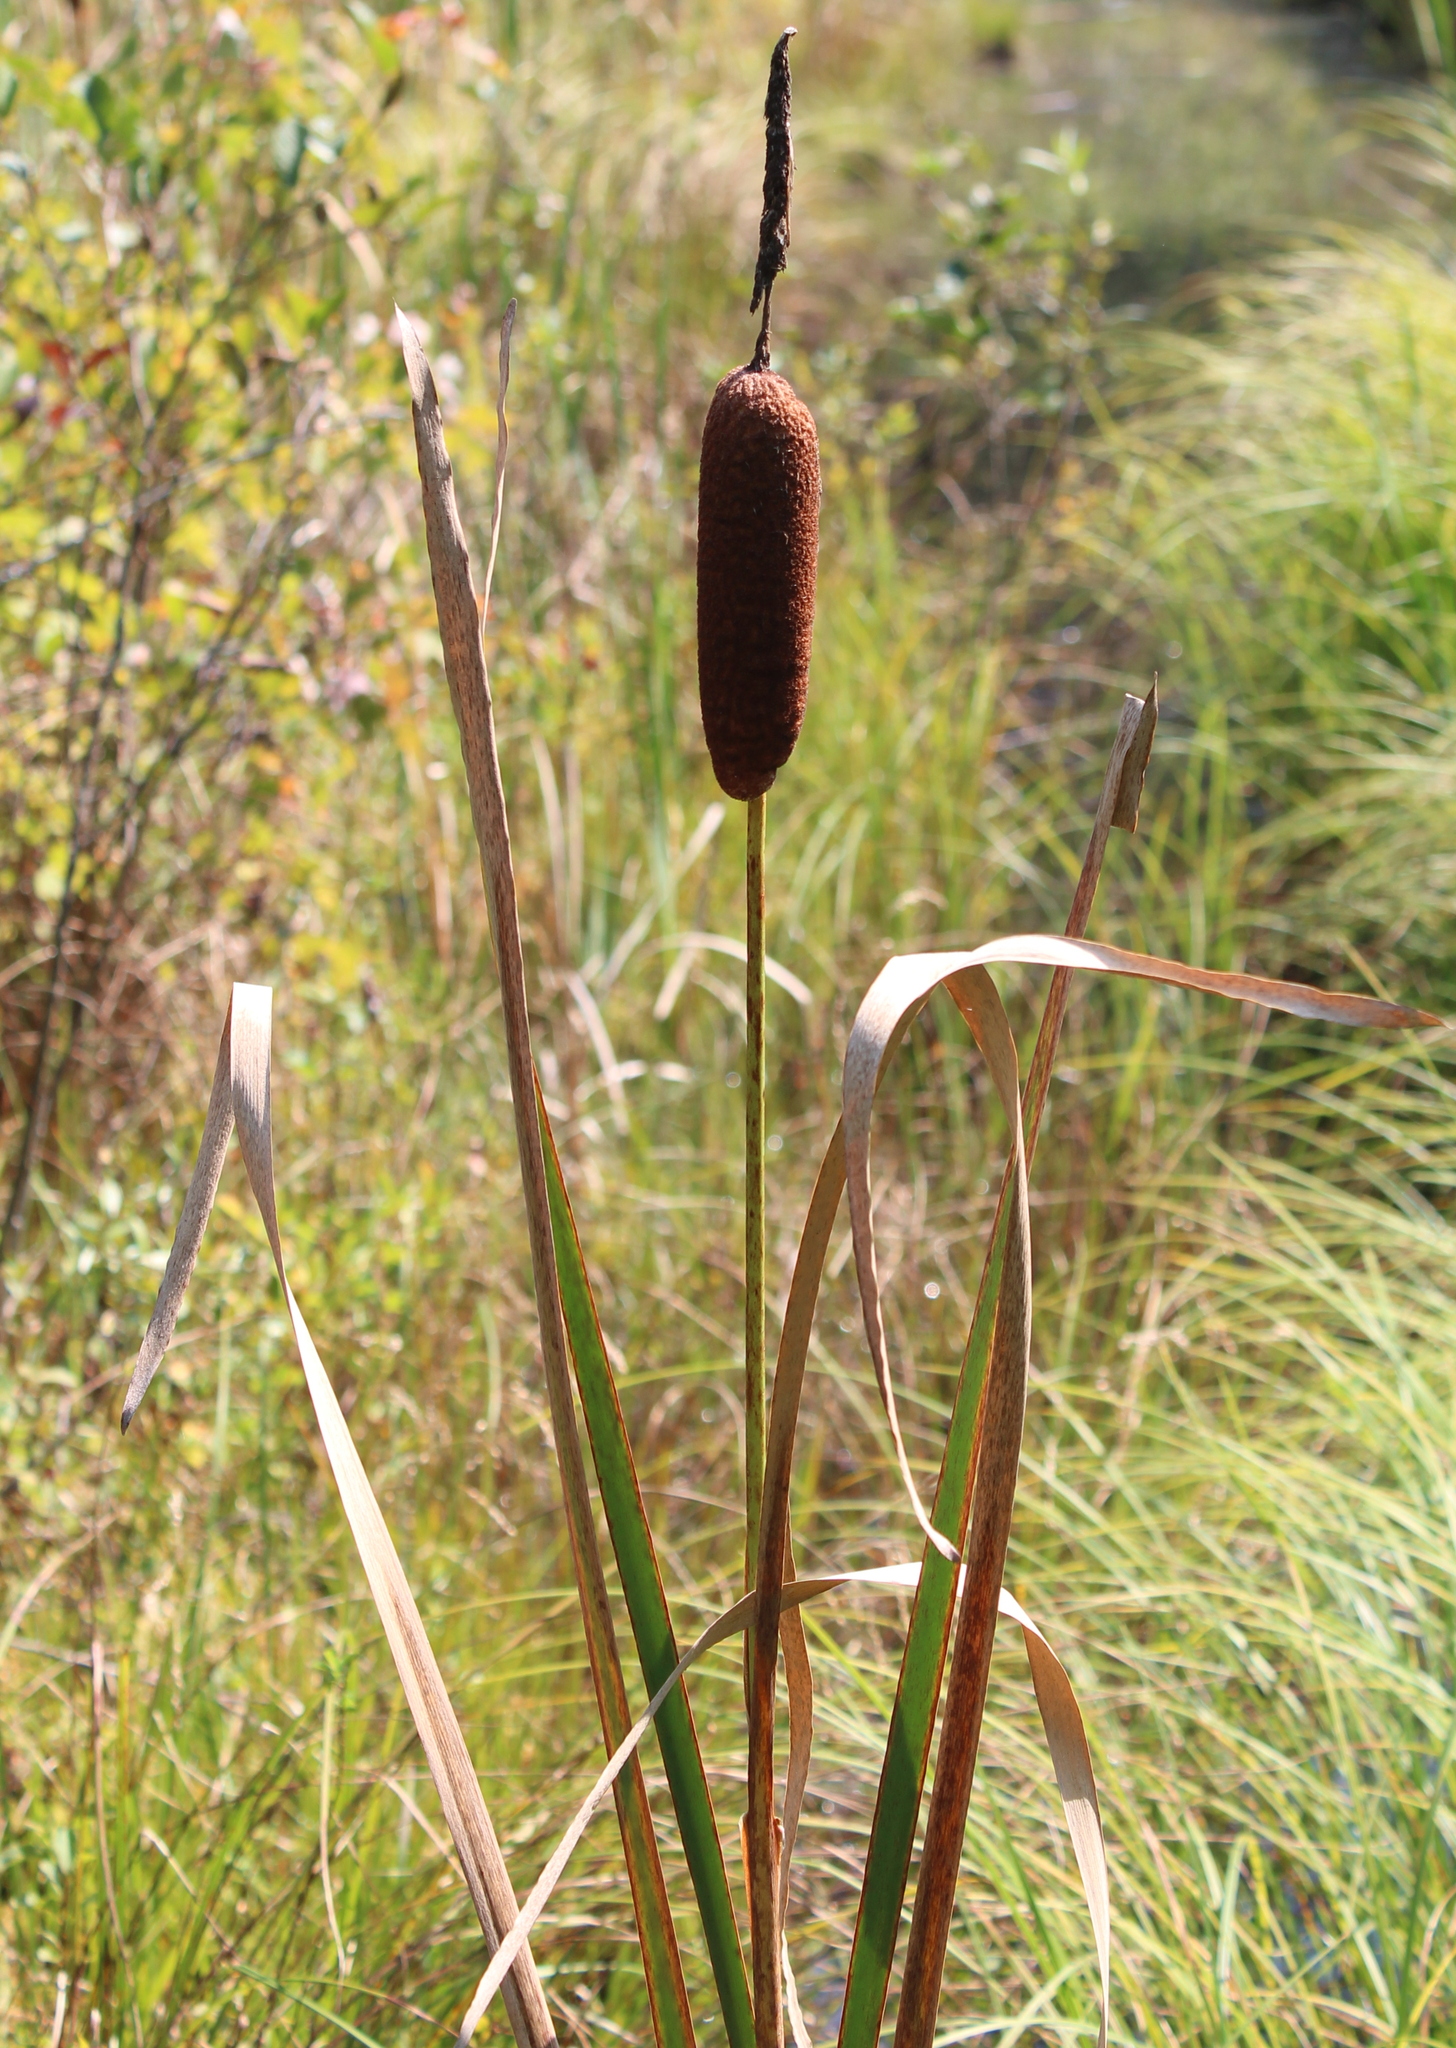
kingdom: Plantae
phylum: Tracheophyta
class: Liliopsida
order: Poales
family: Typhaceae
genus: Typha
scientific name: Typha latifolia
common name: Broadleaf cattail
